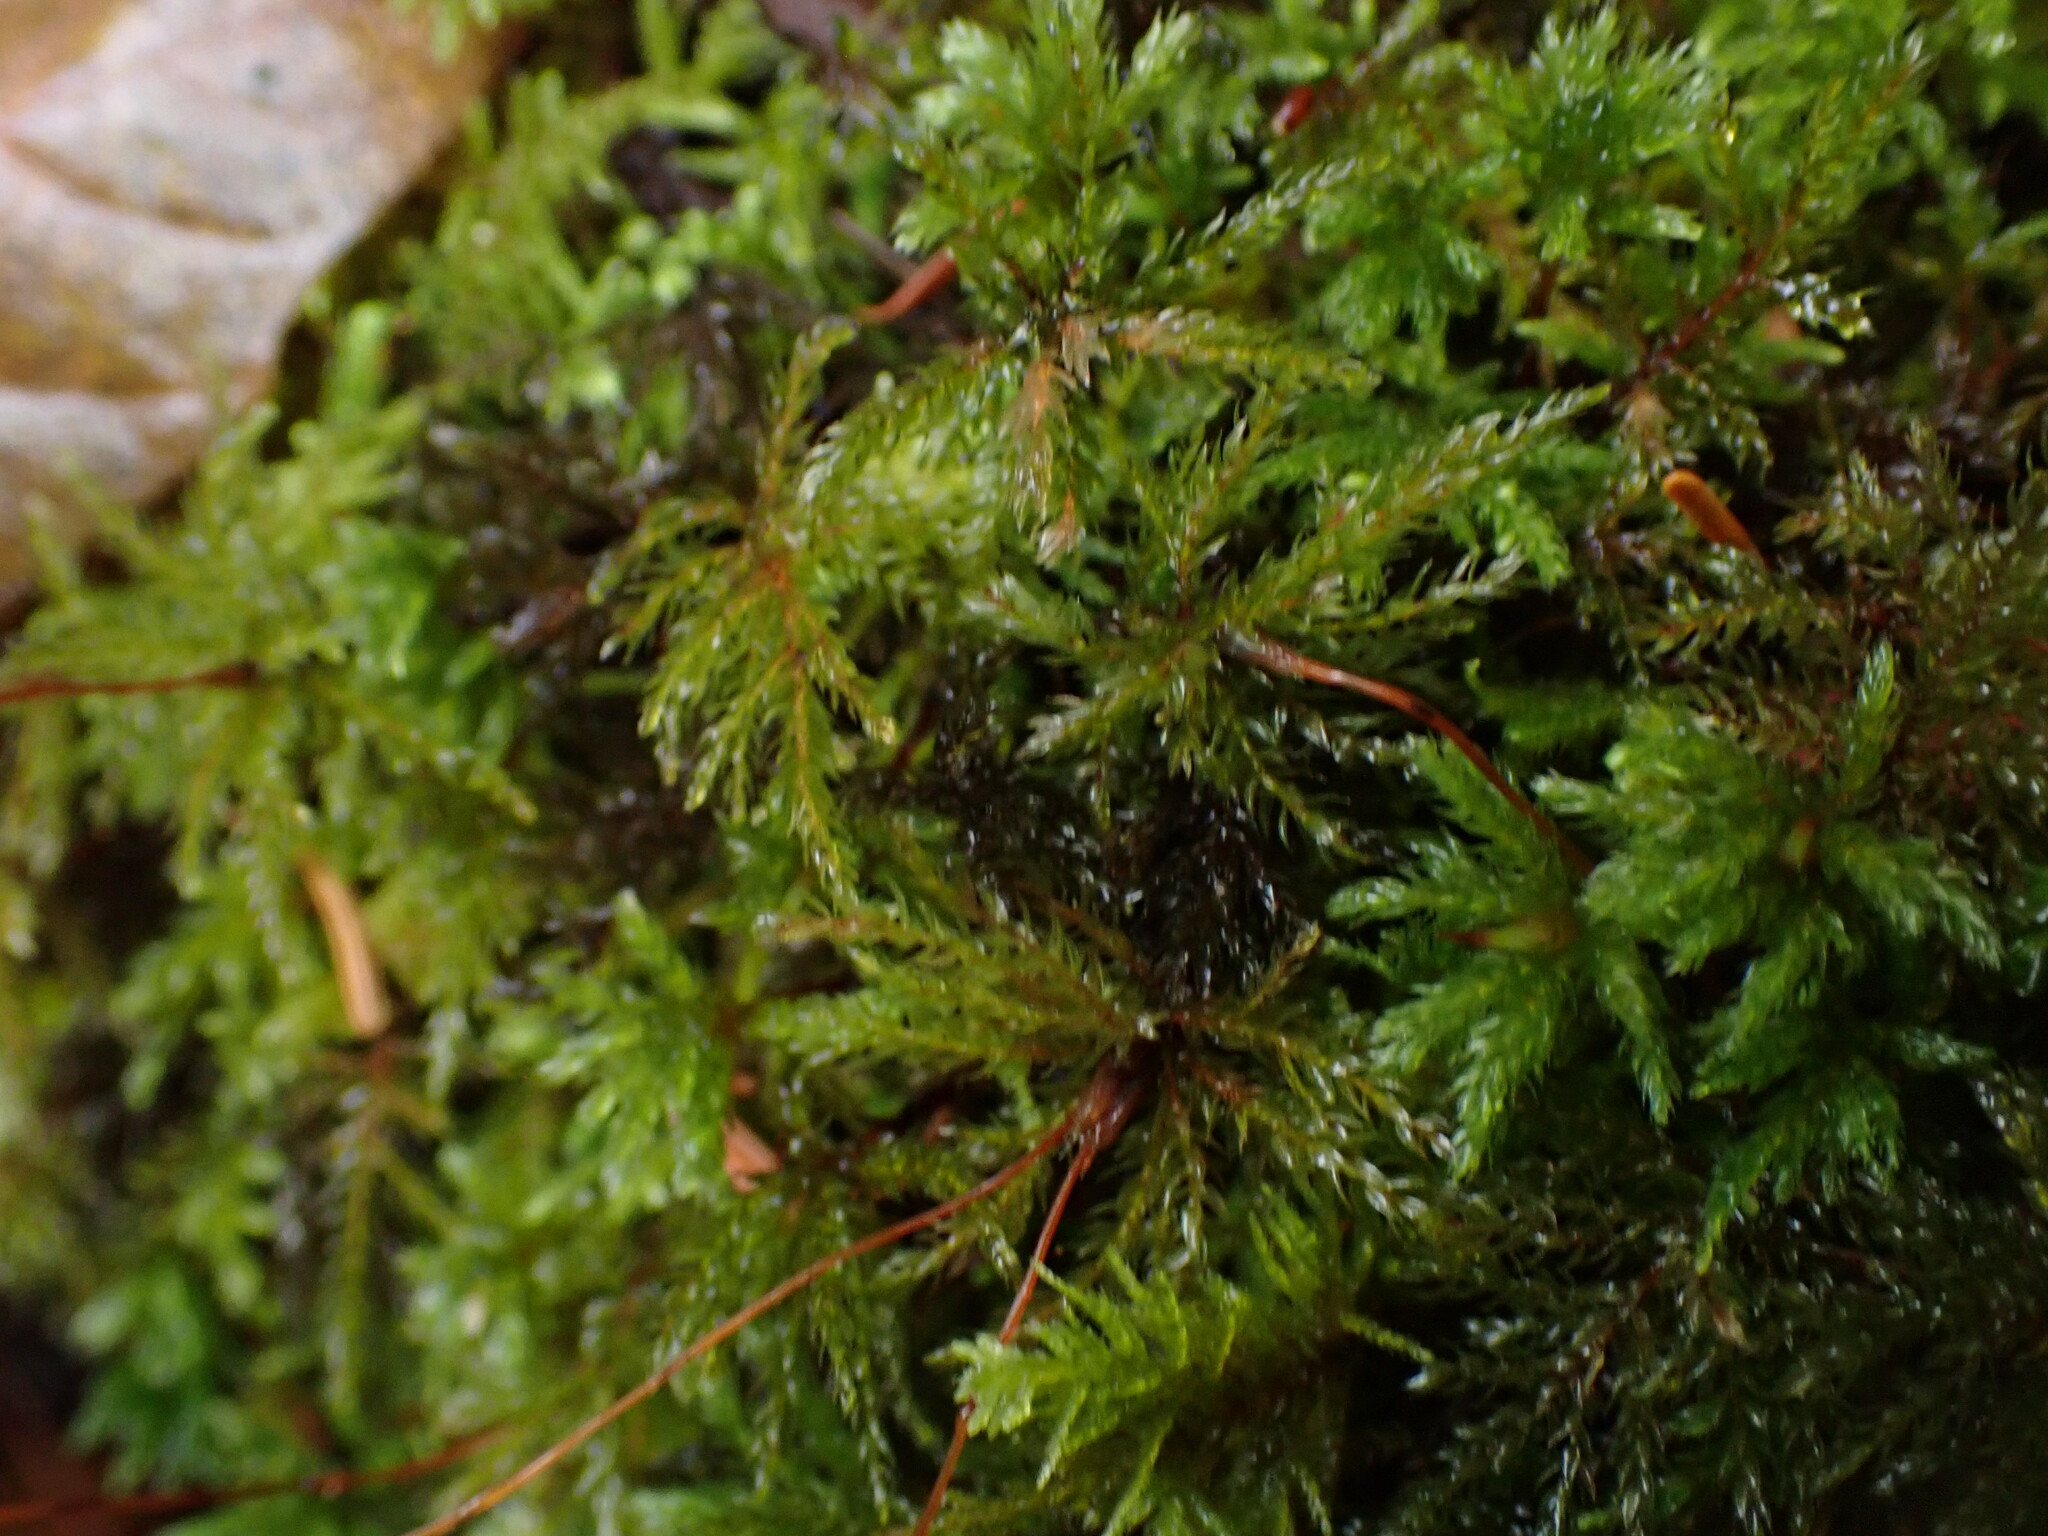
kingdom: Plantae
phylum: Bryophyta
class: Bryopsida
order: Bryales
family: Mniaceae
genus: Leucolepis
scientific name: Leucolepis acanthoneura
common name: Leucolepis umbrella moss
